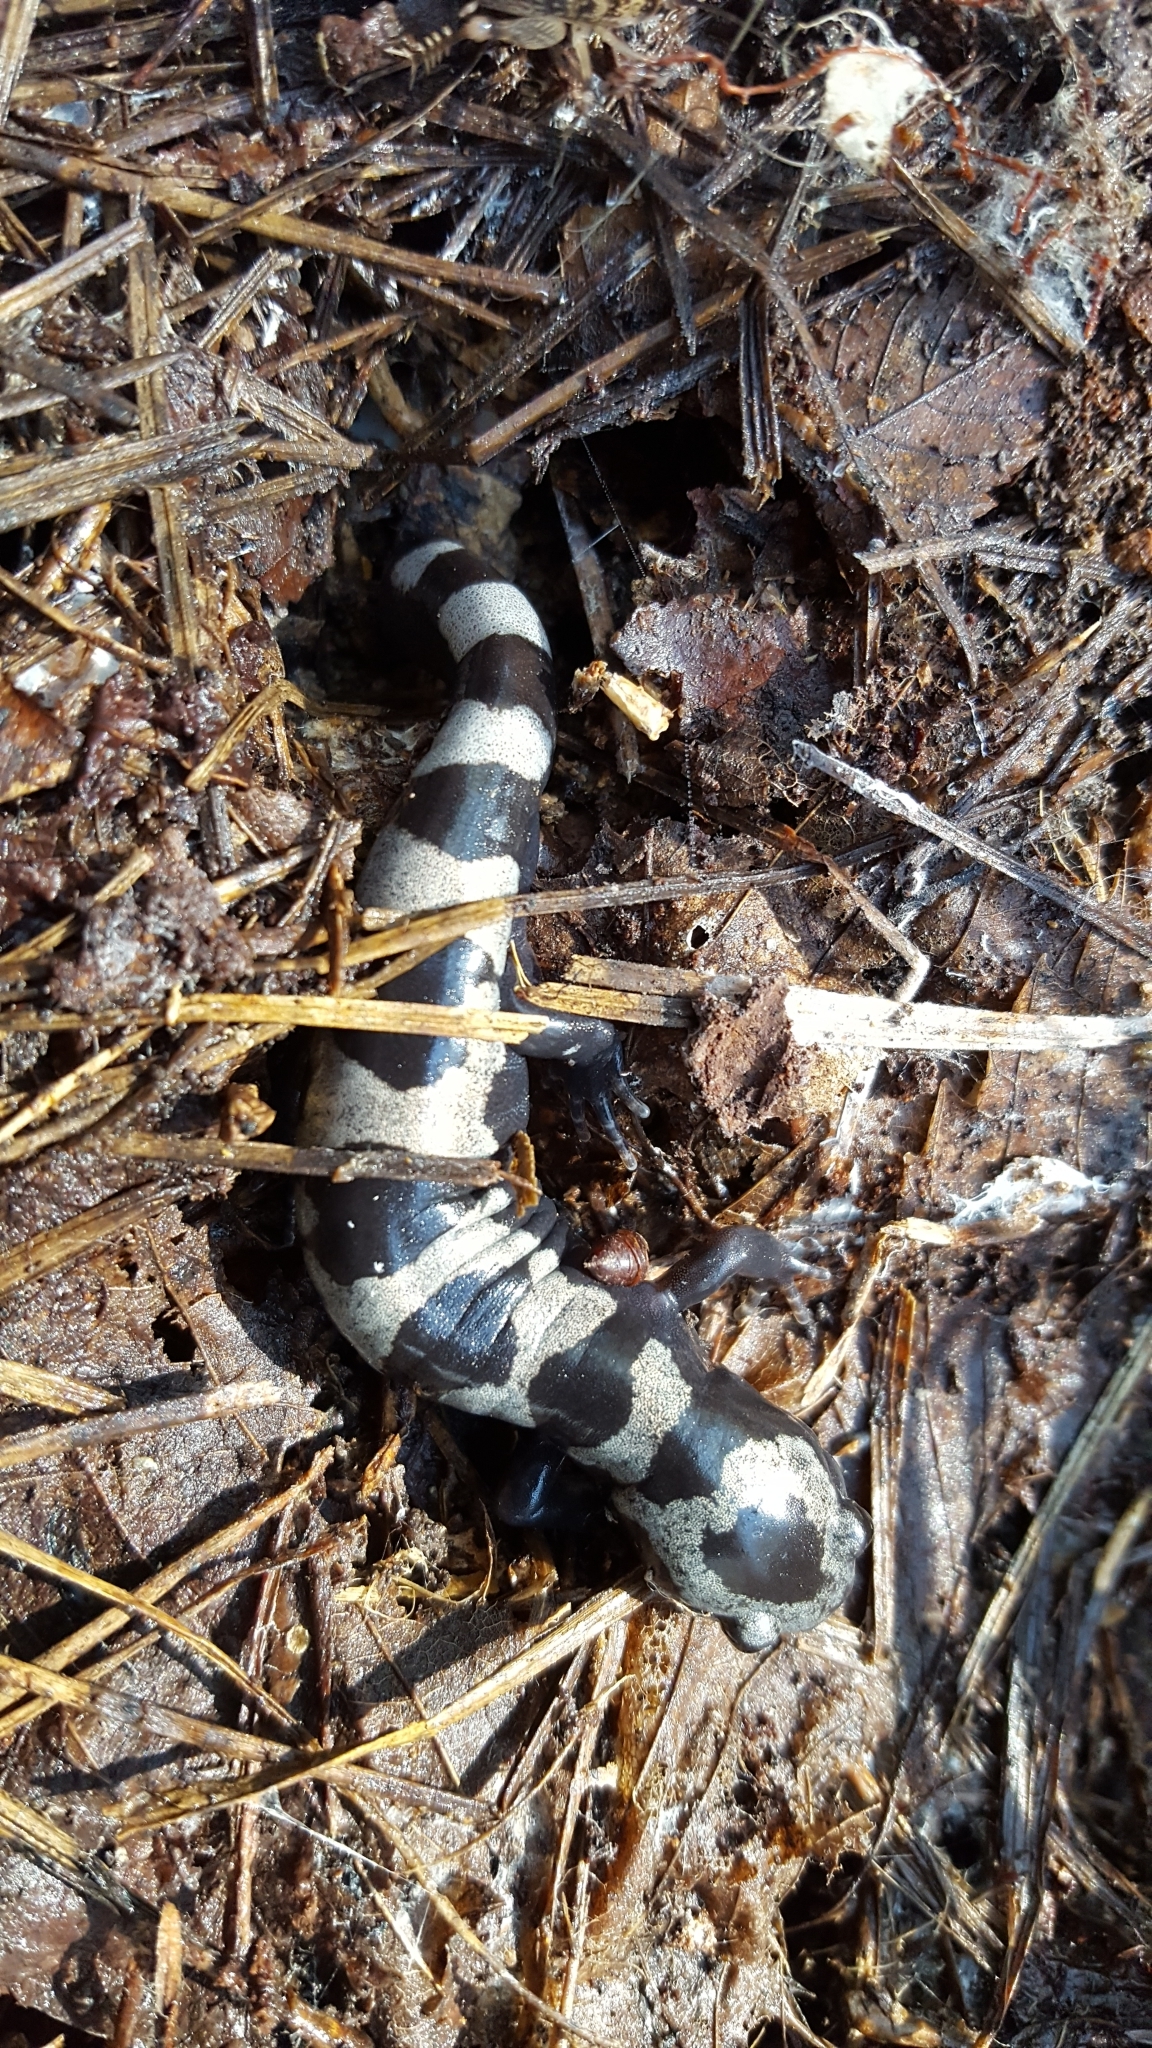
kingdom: Animalia
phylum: Chordata
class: Amphibia
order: Caudata
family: Ambystomatidae
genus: Ambystoma
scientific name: Ambystoma opacum
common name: Marbled salamander
